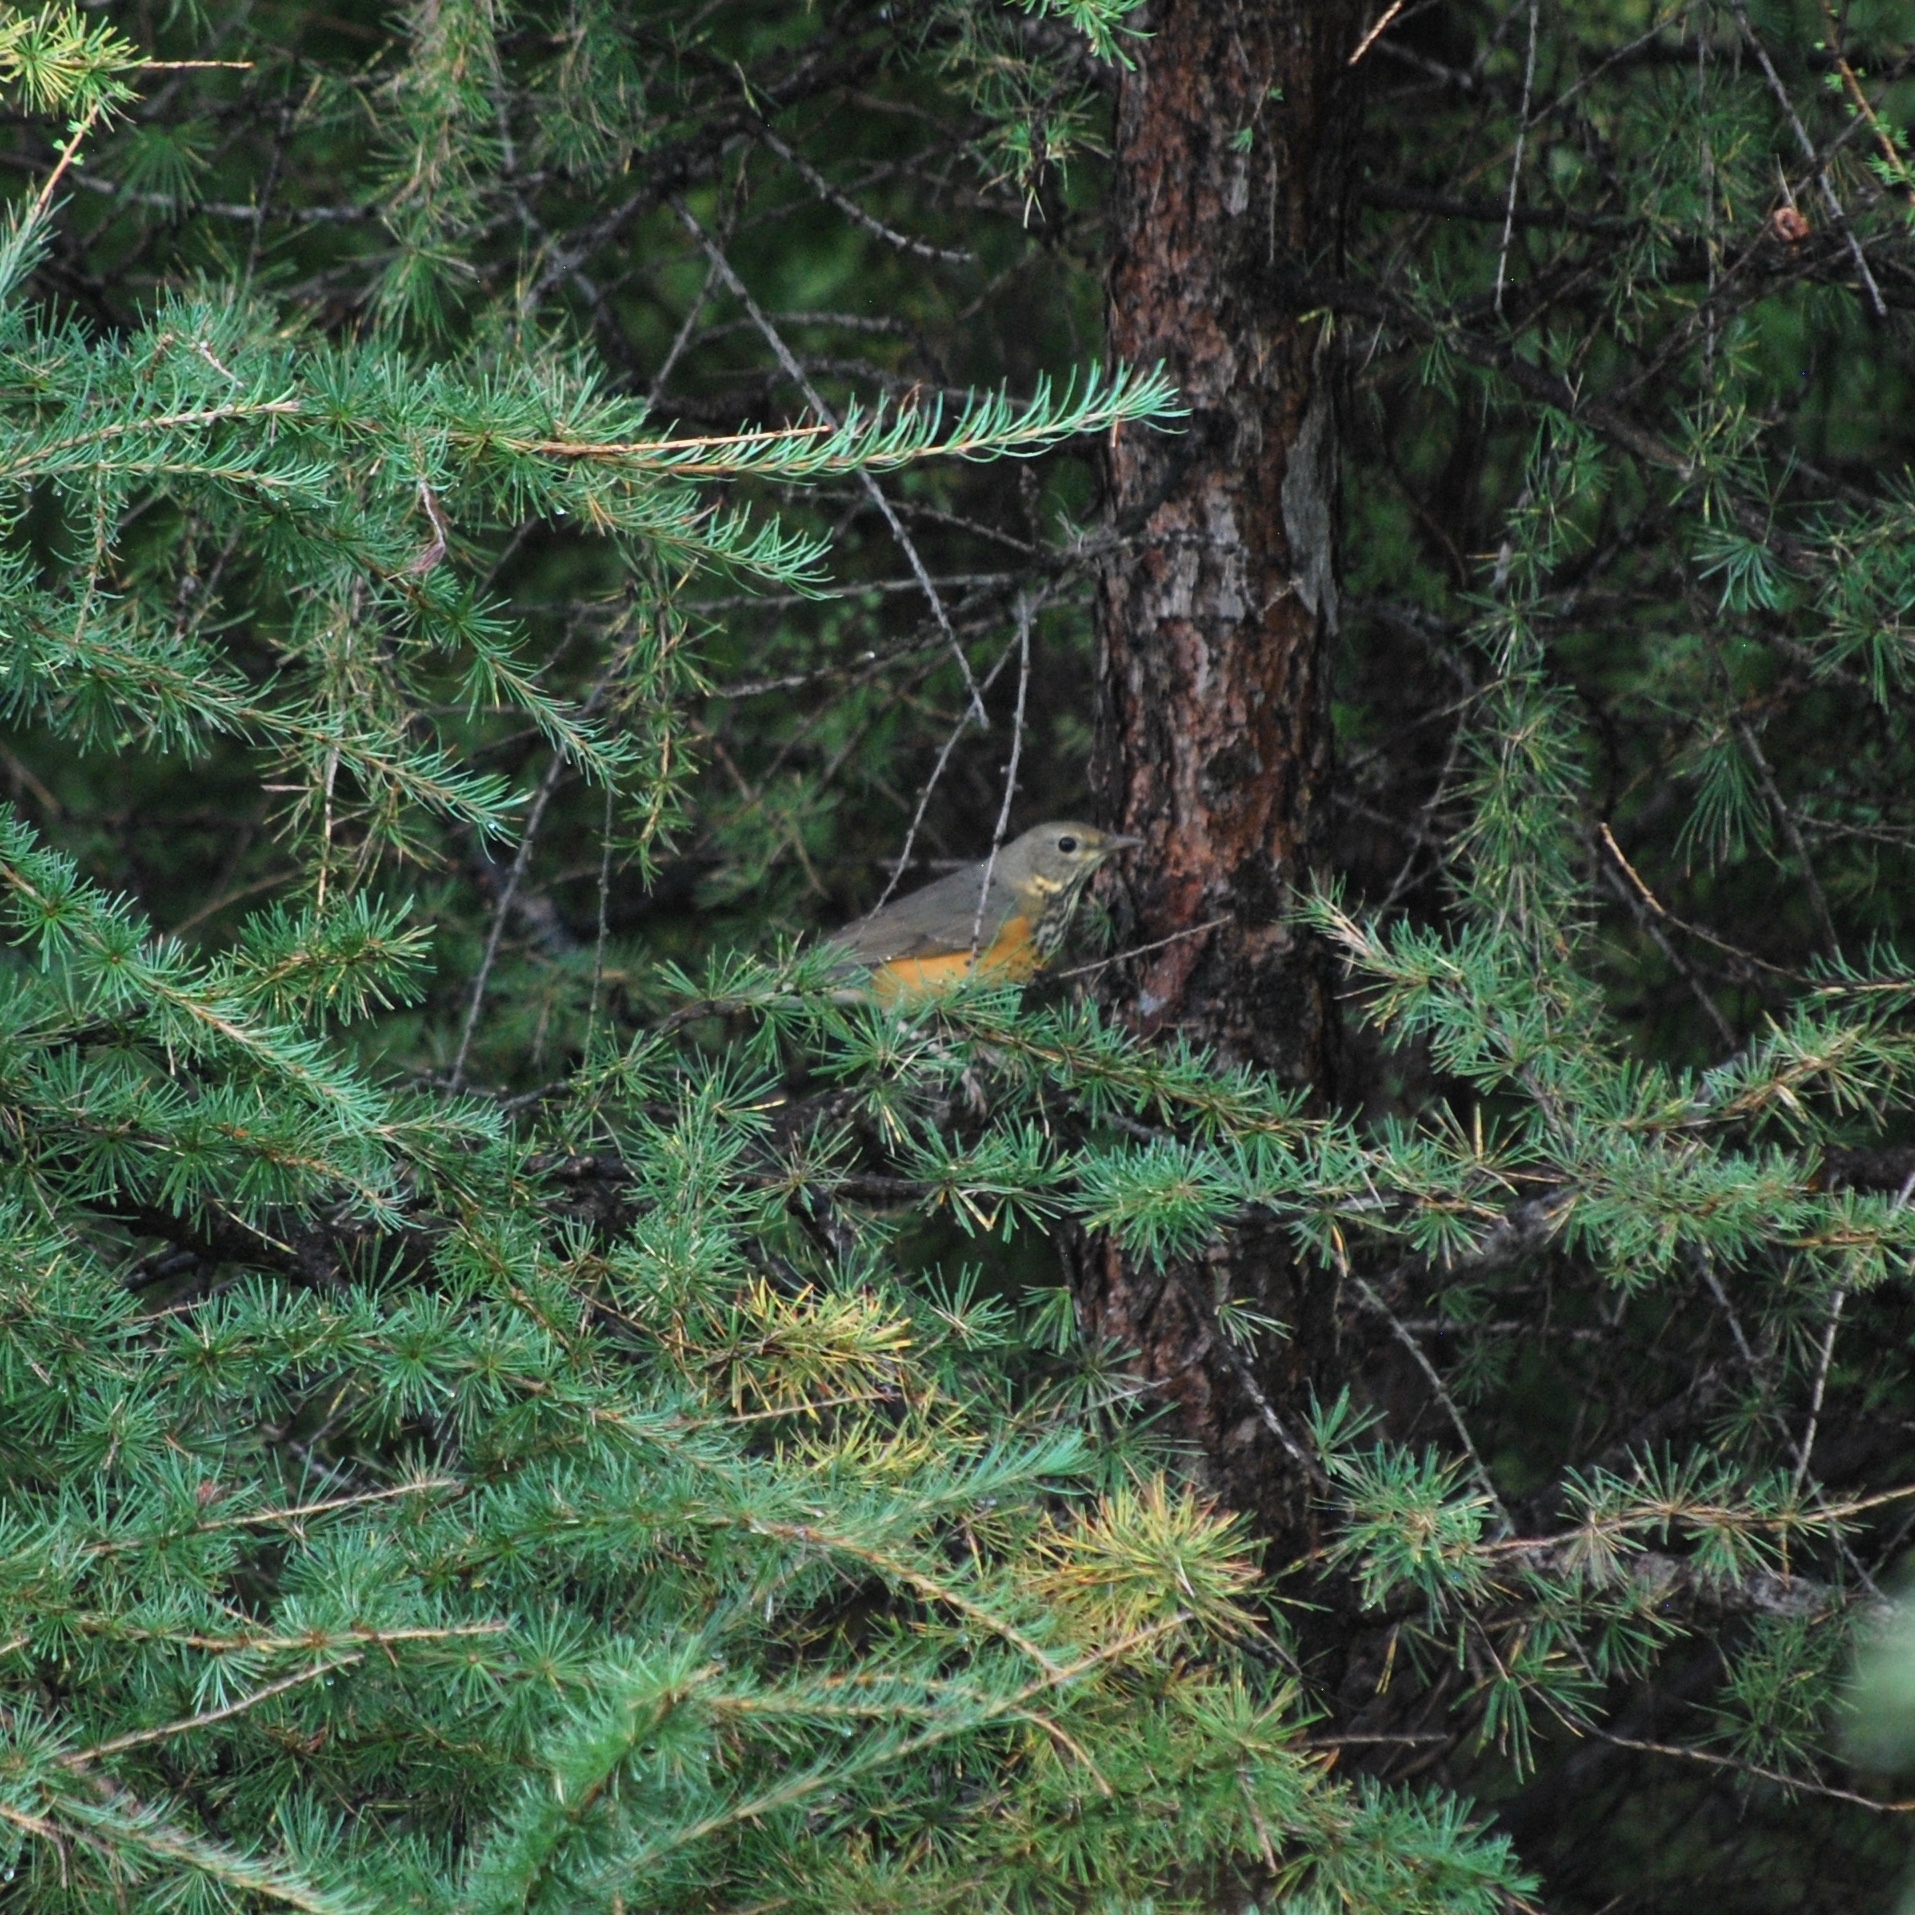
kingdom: Animalia
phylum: Chordata
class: Aves
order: Passeriformes
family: Turdidae
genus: Turdus
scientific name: Turdus hortulorum
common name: Grey-backed thrush
